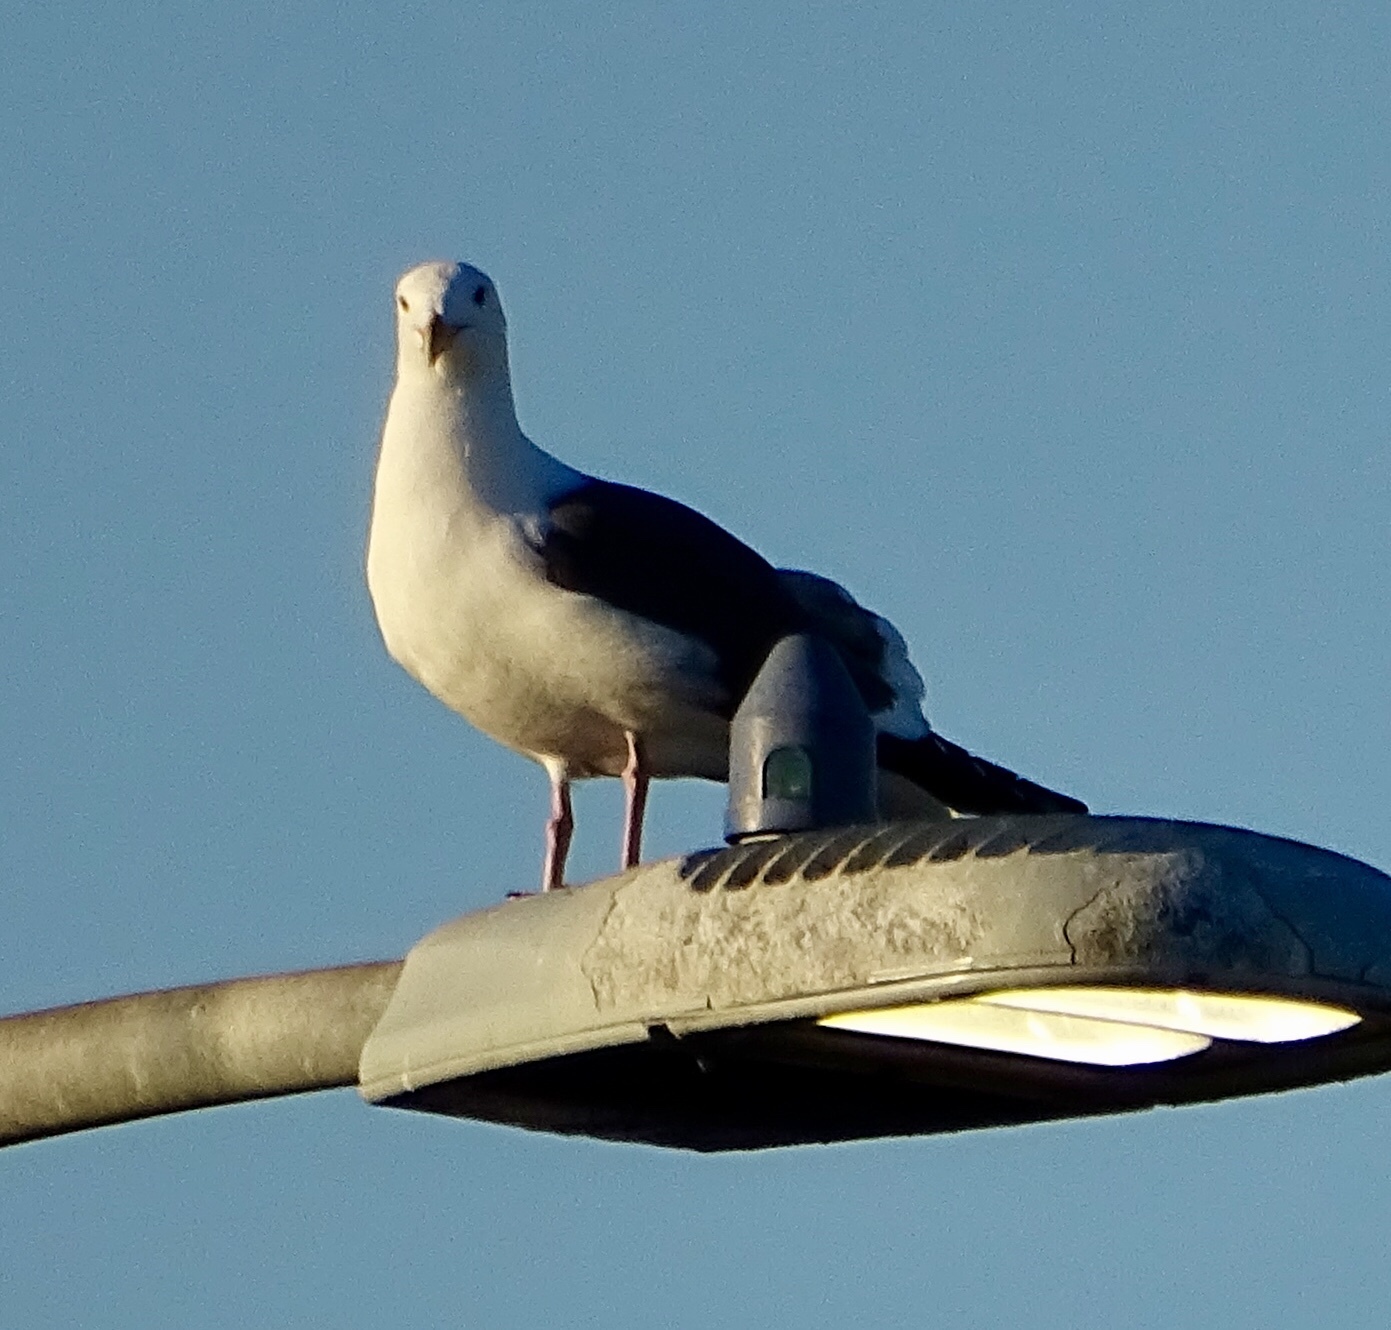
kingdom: Animalia
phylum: Chordata
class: Aves
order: Charadriiformes
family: Laridae
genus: Larus
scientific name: Larus occidentalis
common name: Western gull
